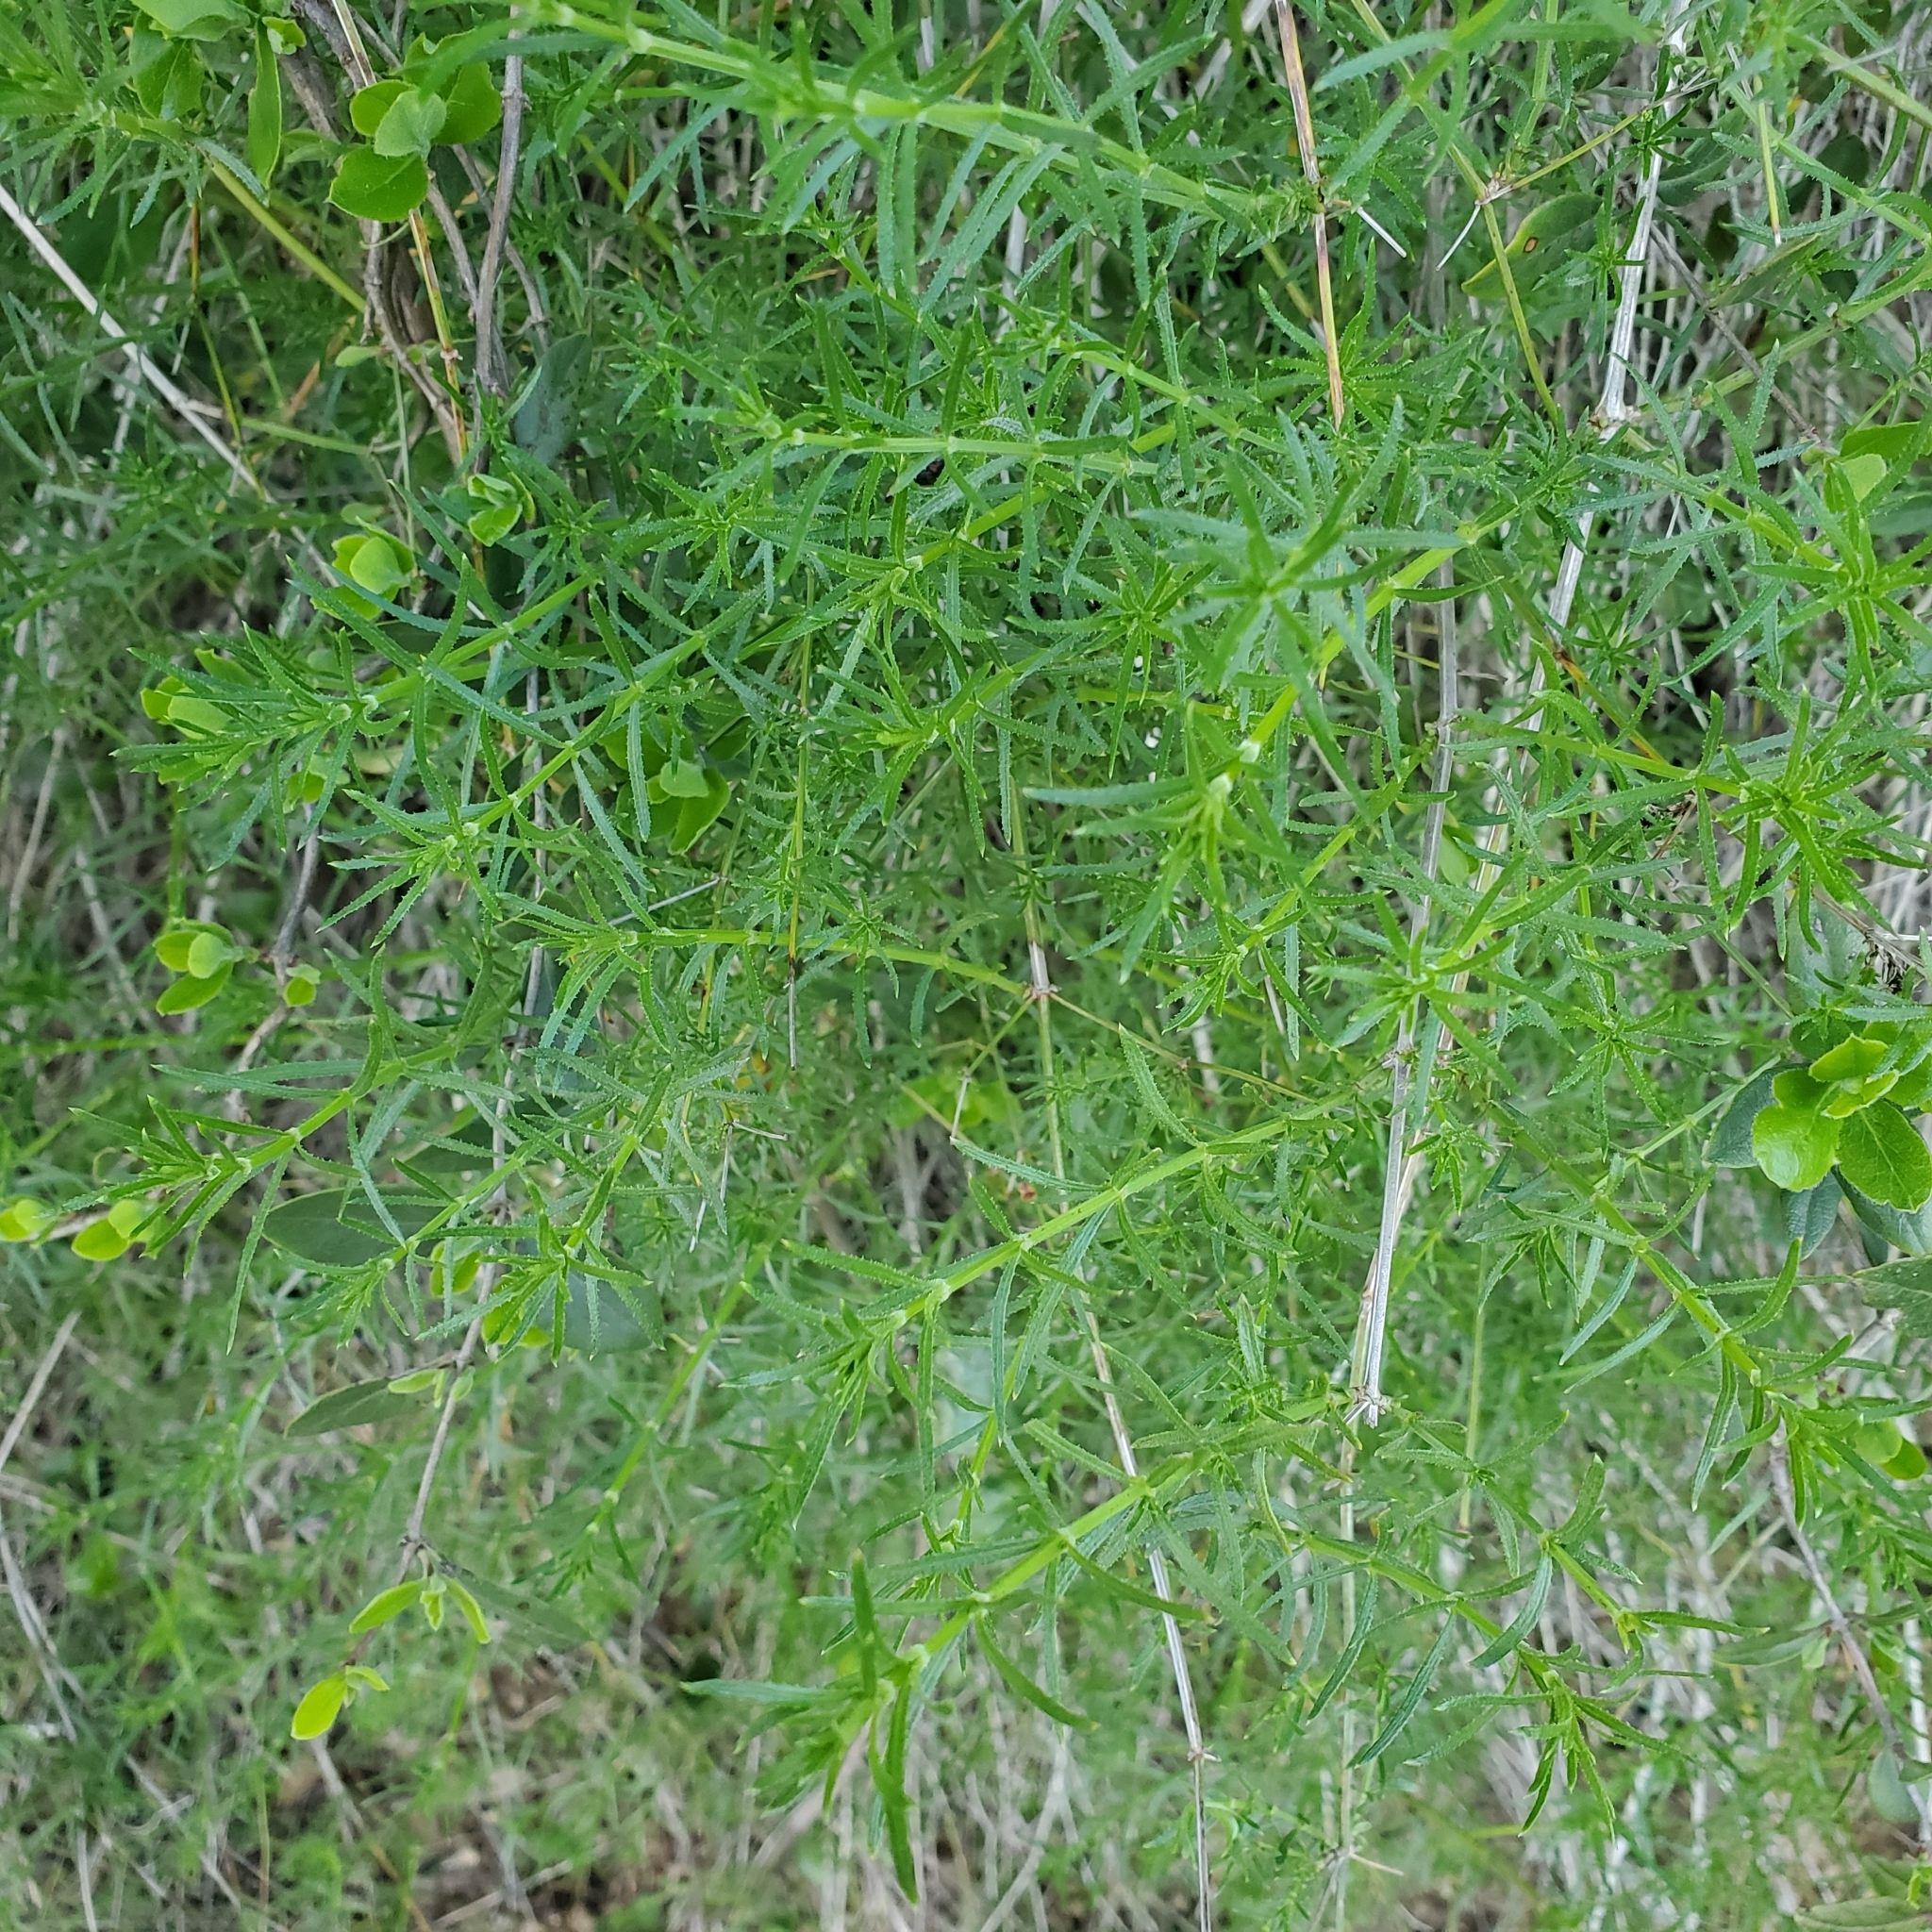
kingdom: Plantae
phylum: Tracheophyta
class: Magnoliopsida
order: Gentianales
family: Rubiaceae
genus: Galium
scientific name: Galium angustifolium
